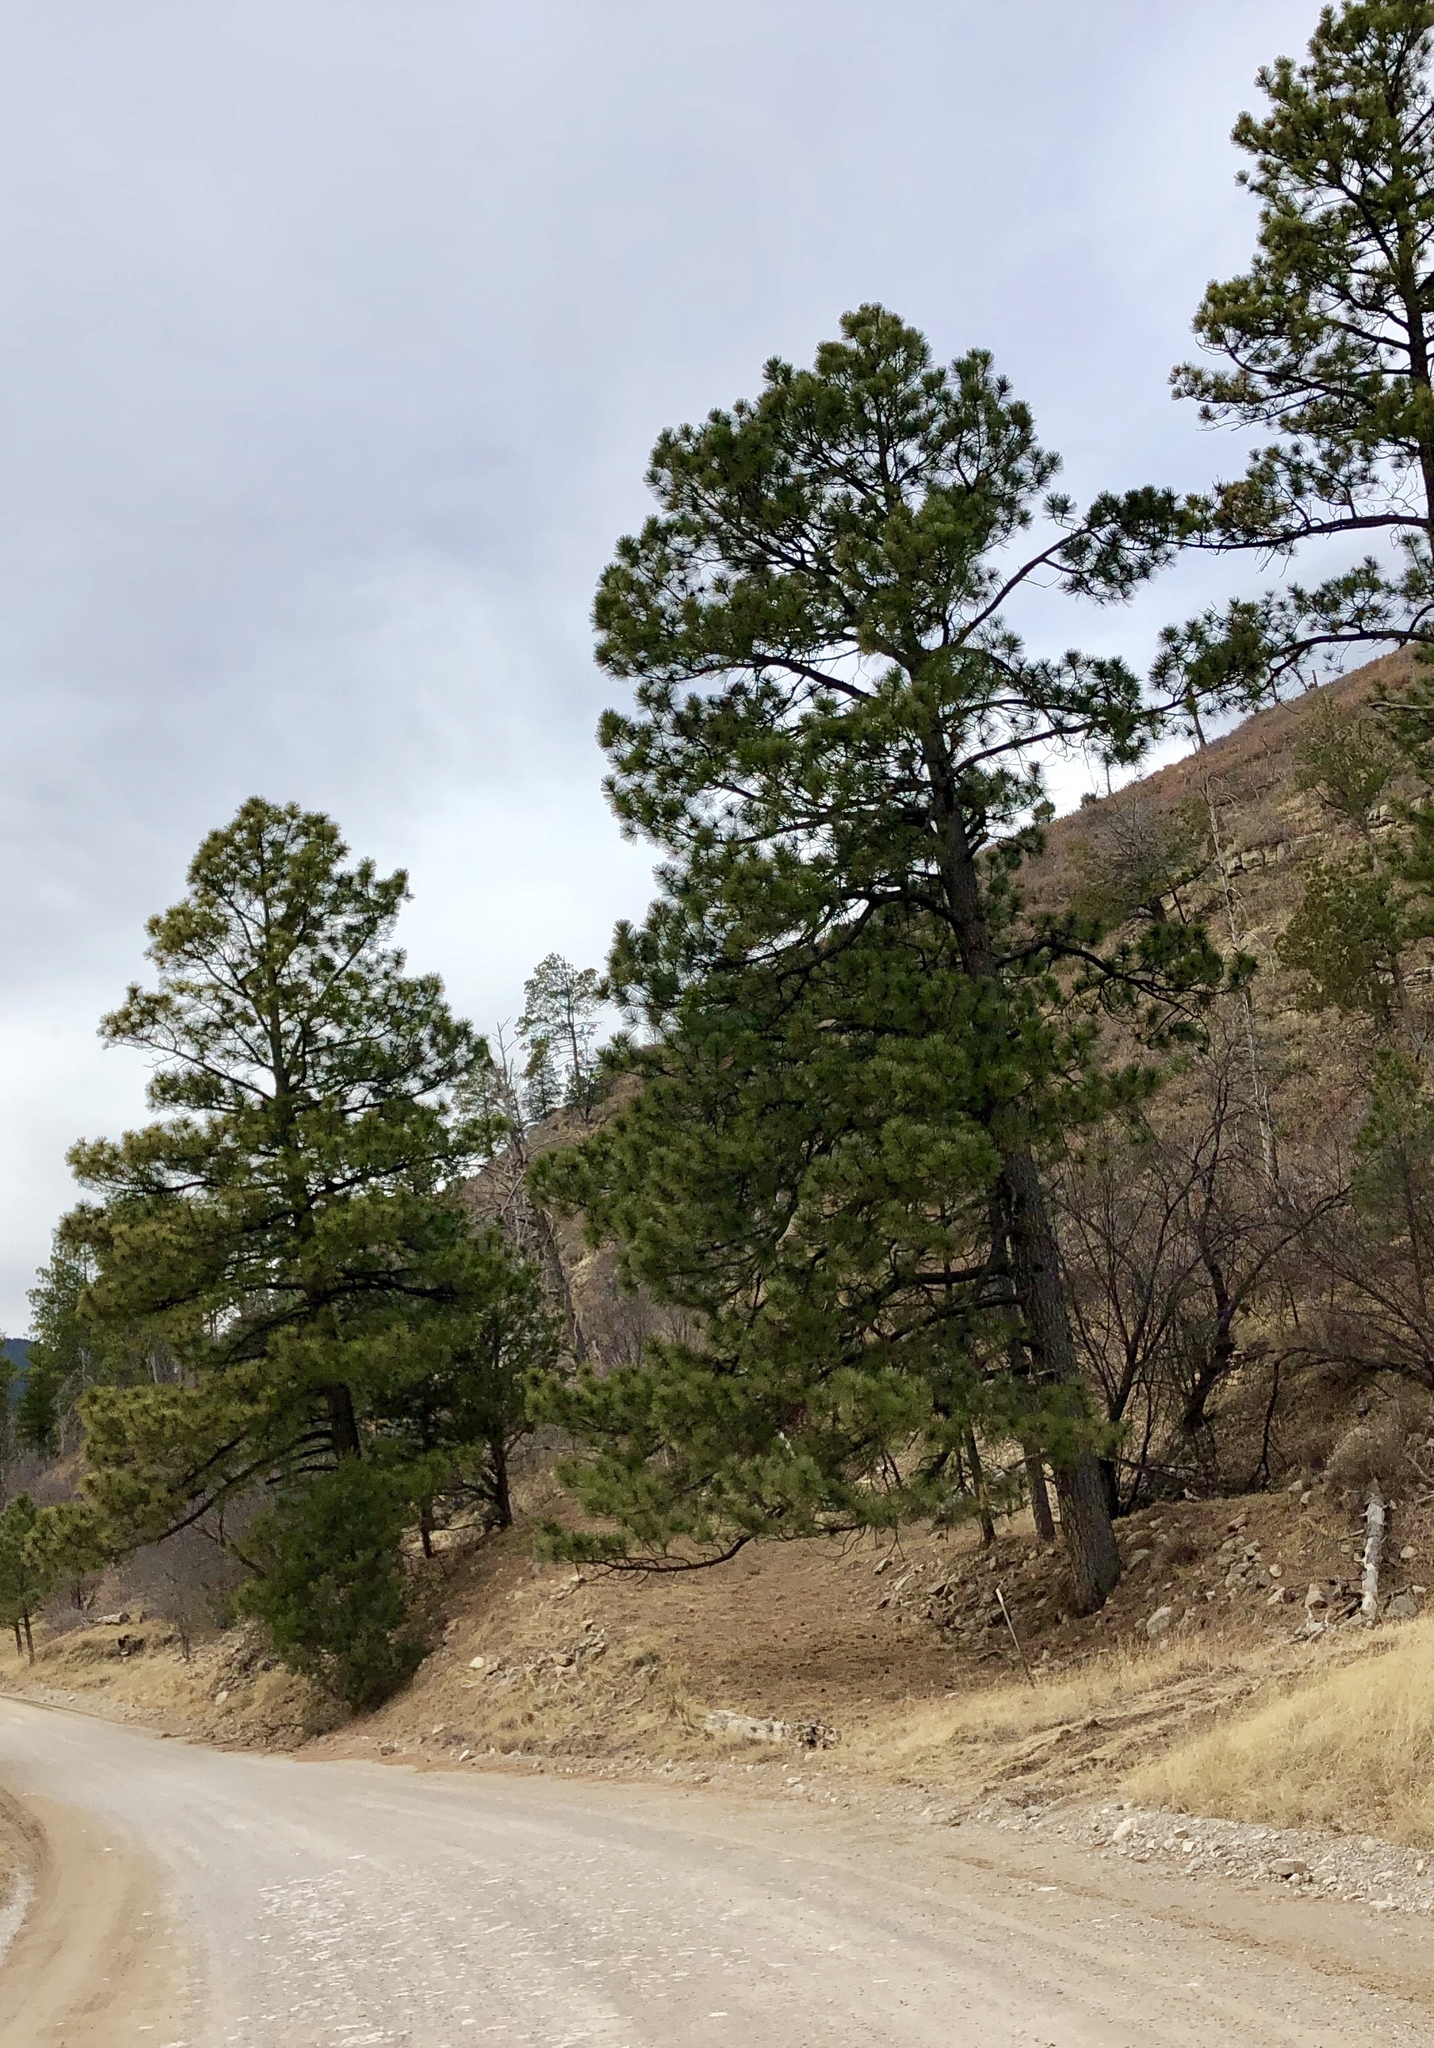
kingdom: Plantae
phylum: Tracheophyta
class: Pinopsida
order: Pinales
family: Pinaceae
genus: Pinus
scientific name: Pinus ponderosa
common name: Western yellow-pine
